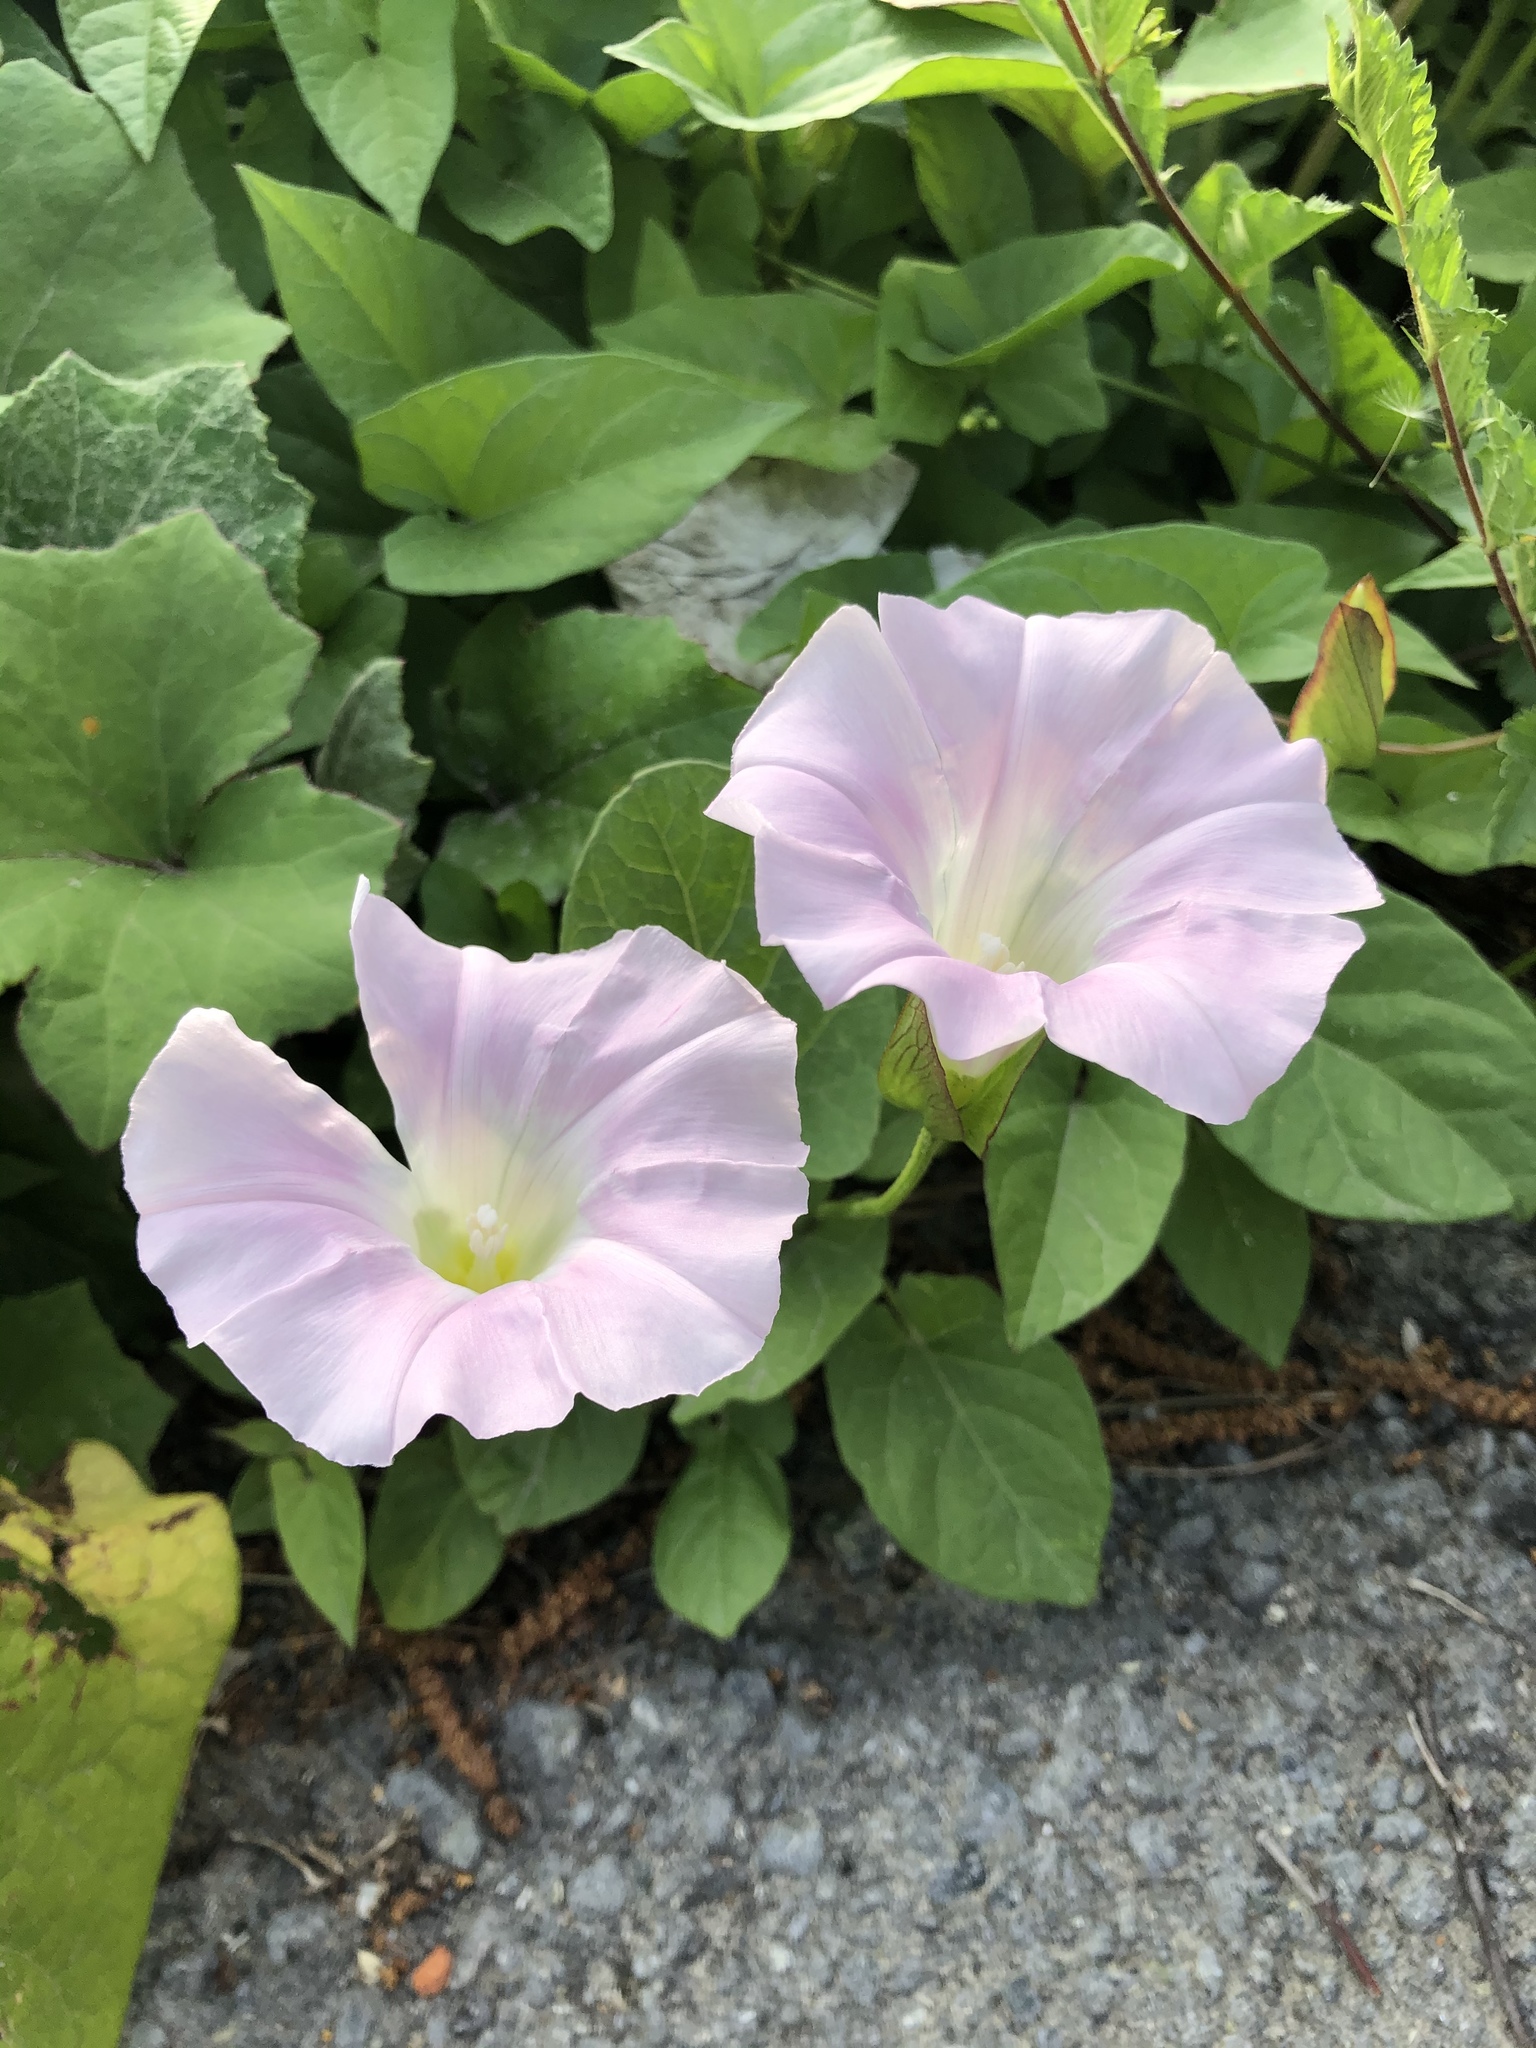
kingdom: Plantae
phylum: Tracheophyta
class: Magnoliopsida
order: Solanales
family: Convolvulaceae
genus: Calystegia
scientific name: Calystegia sepium
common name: Hedge bindweed
